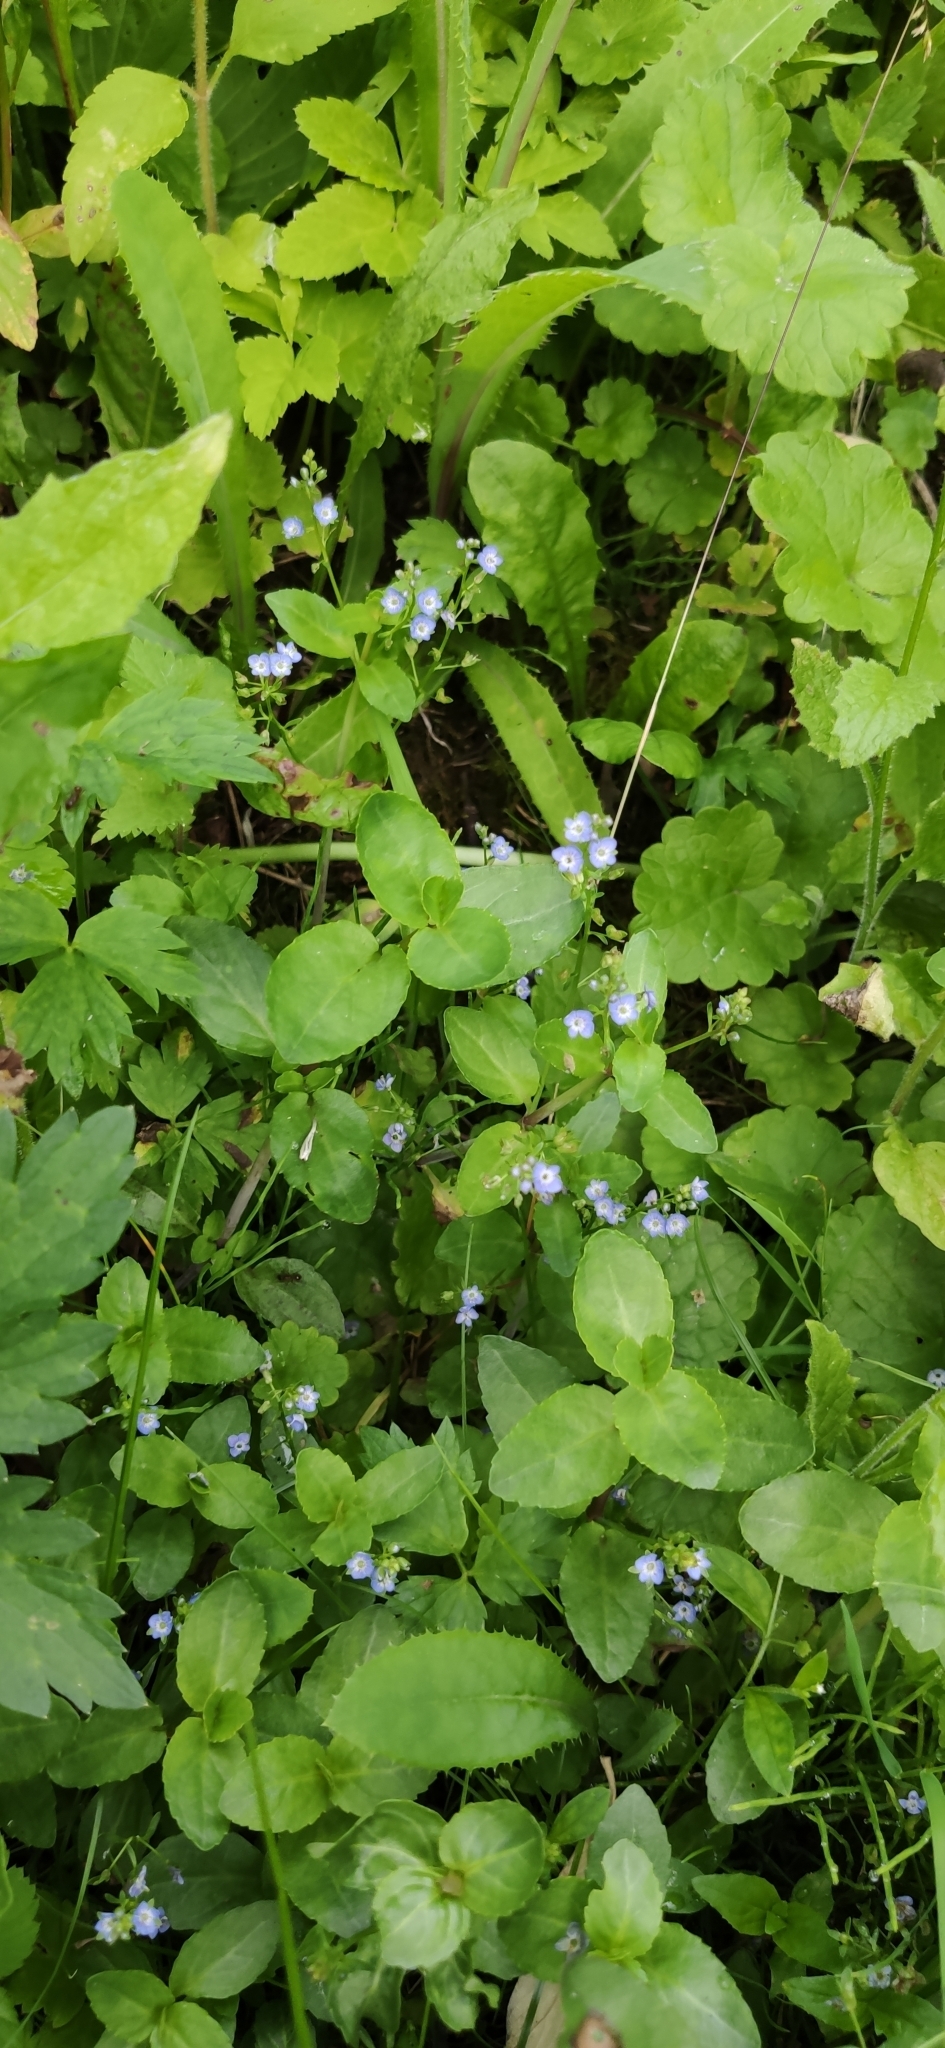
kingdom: Plantae
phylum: Tracheophyta
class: Magnoliopsida
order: Lamiales
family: Plantaginaceae
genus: Veronica
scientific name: Veronica beccabunga
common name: Brooklime
